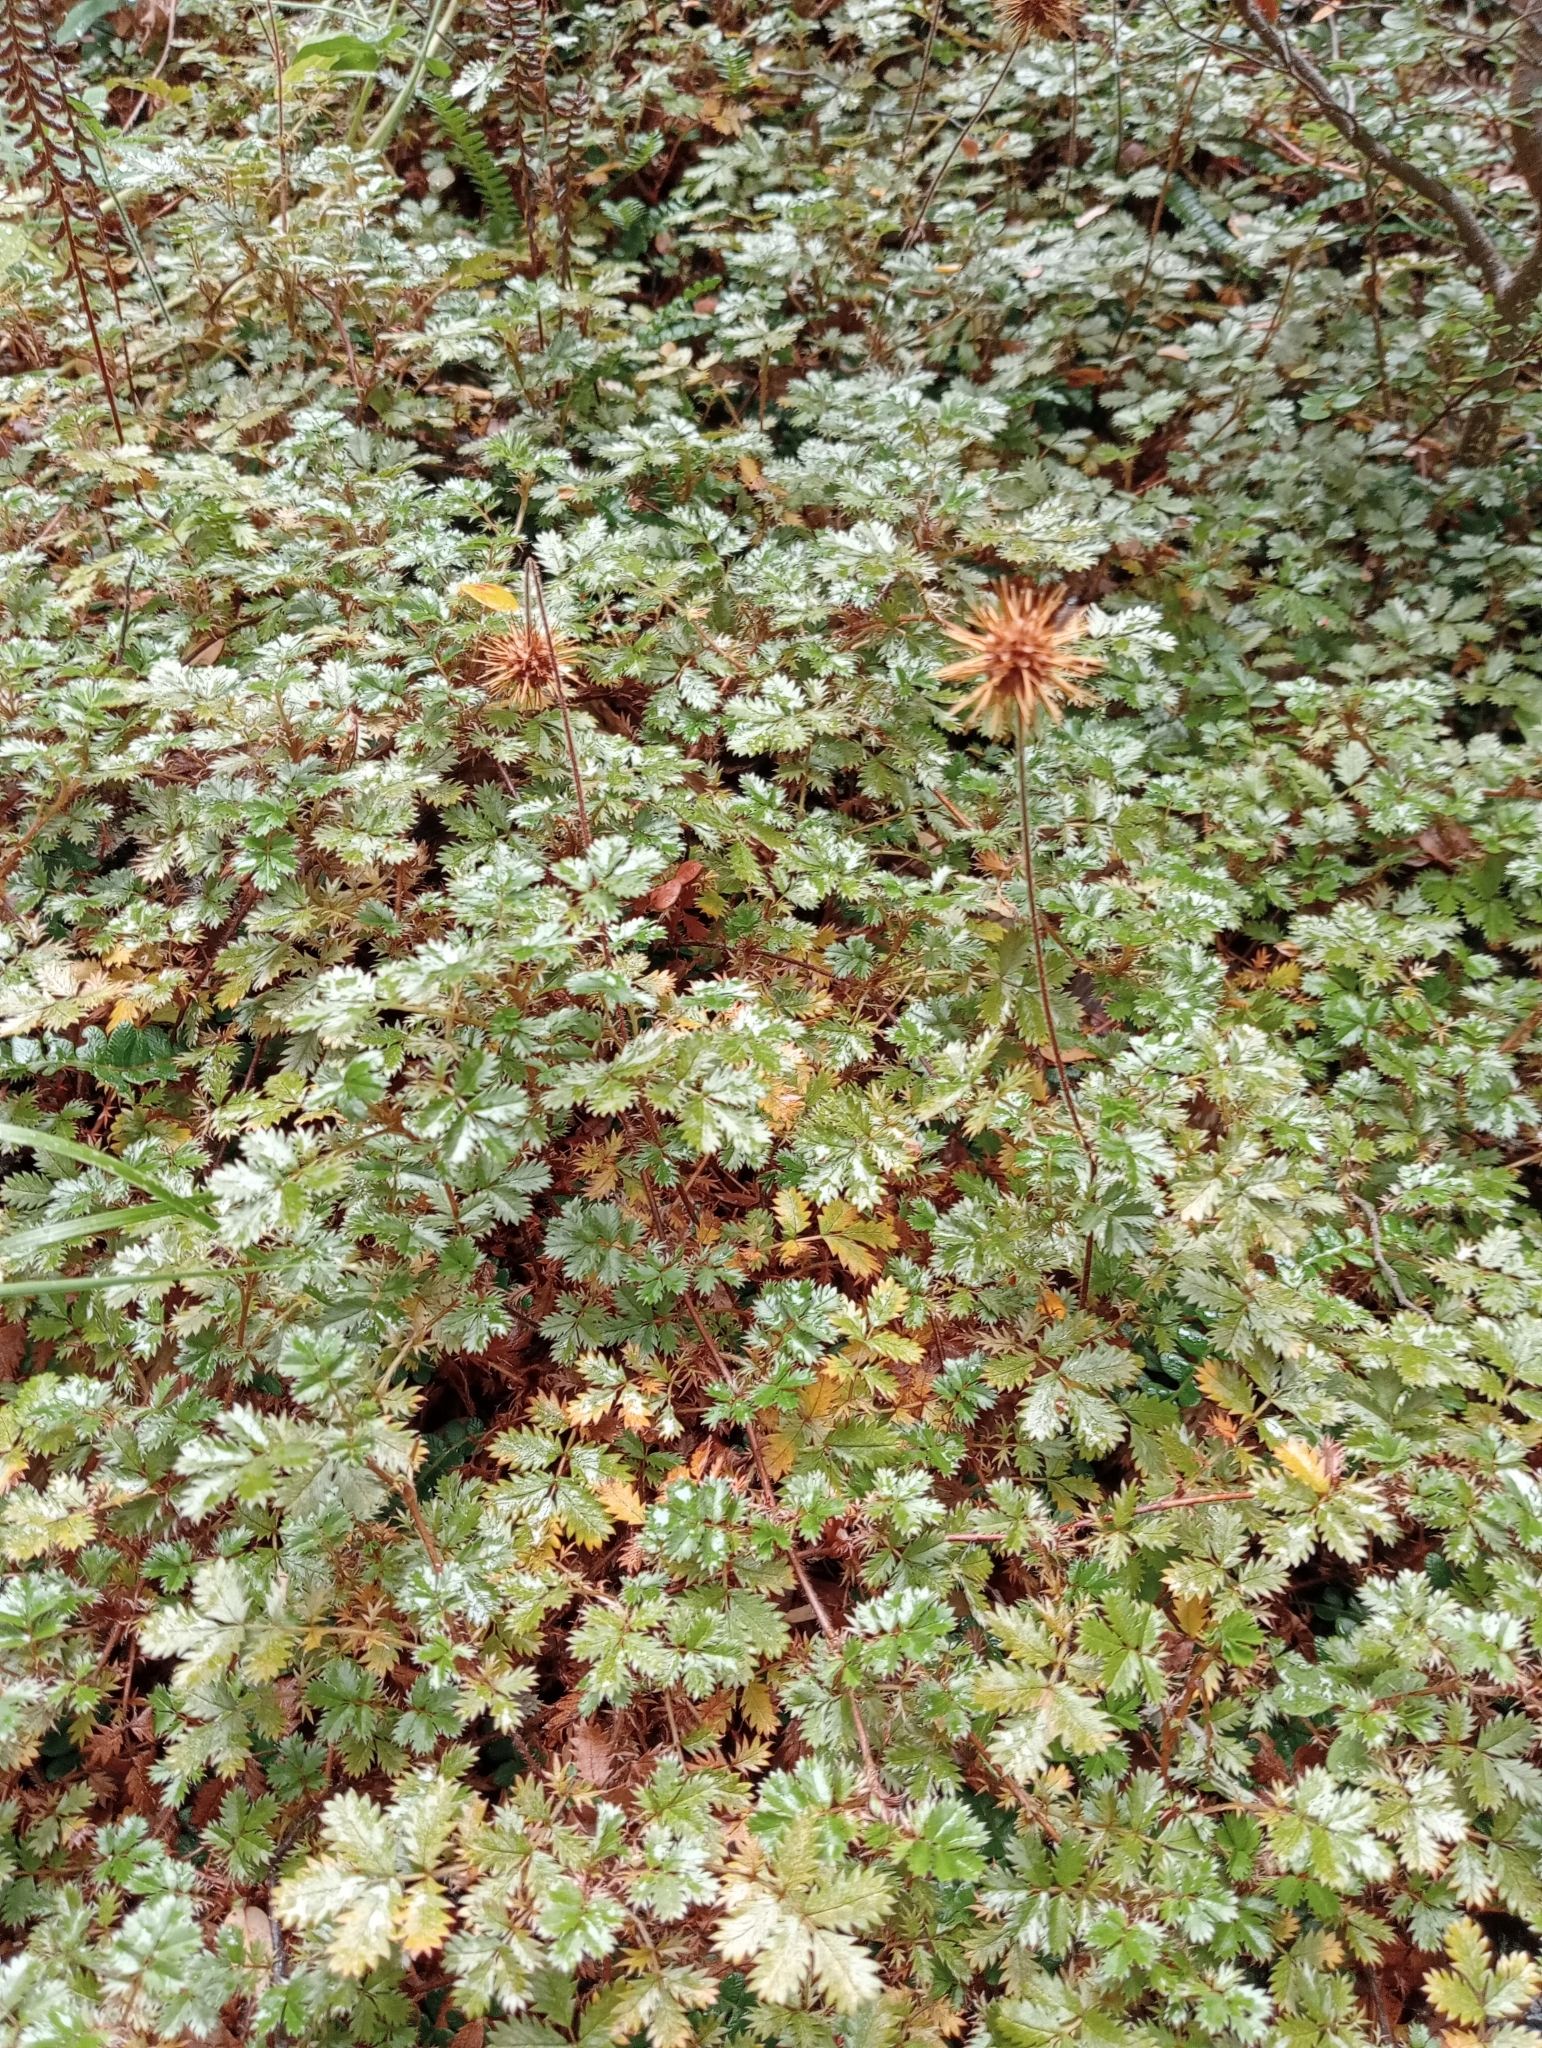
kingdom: Plantae
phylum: Tracheophyta
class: Magnoliopsida
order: Rosales
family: Rosaceae
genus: Acaena
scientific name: Acaena anserinifolia
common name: Bronze pirri-pirri-bur
